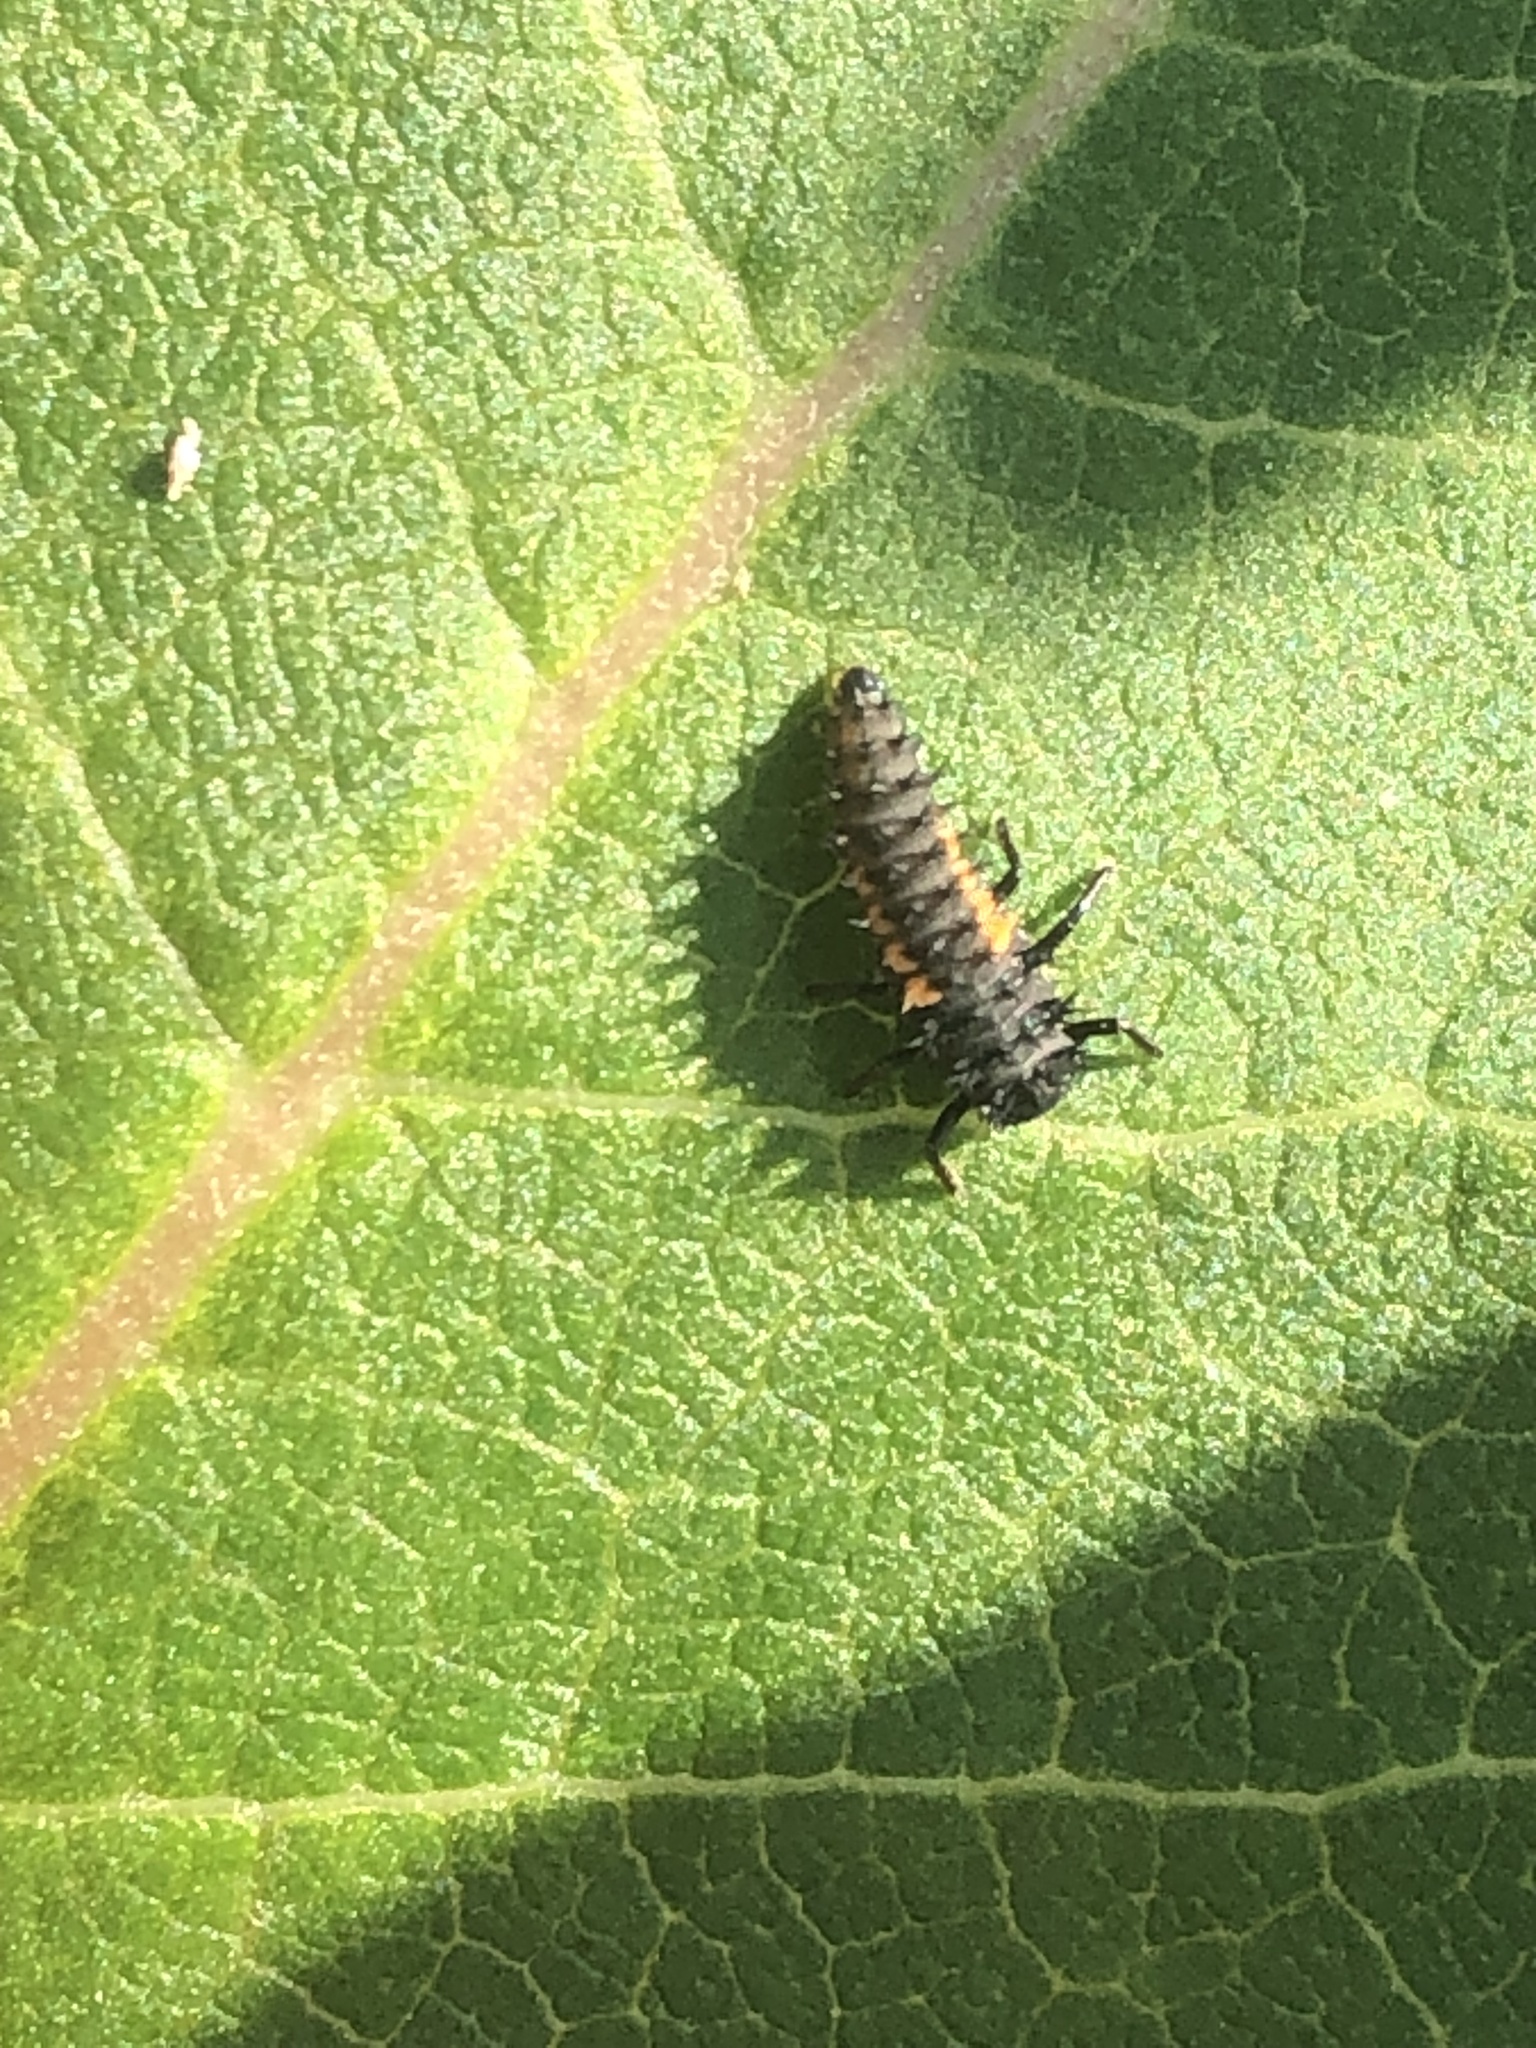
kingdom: Animalia
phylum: Arthropoda
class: Insecta
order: Coleoptera
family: Coccinellidae
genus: Harmonia
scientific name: Harmonia axyridis
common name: Harlequin ladybird
